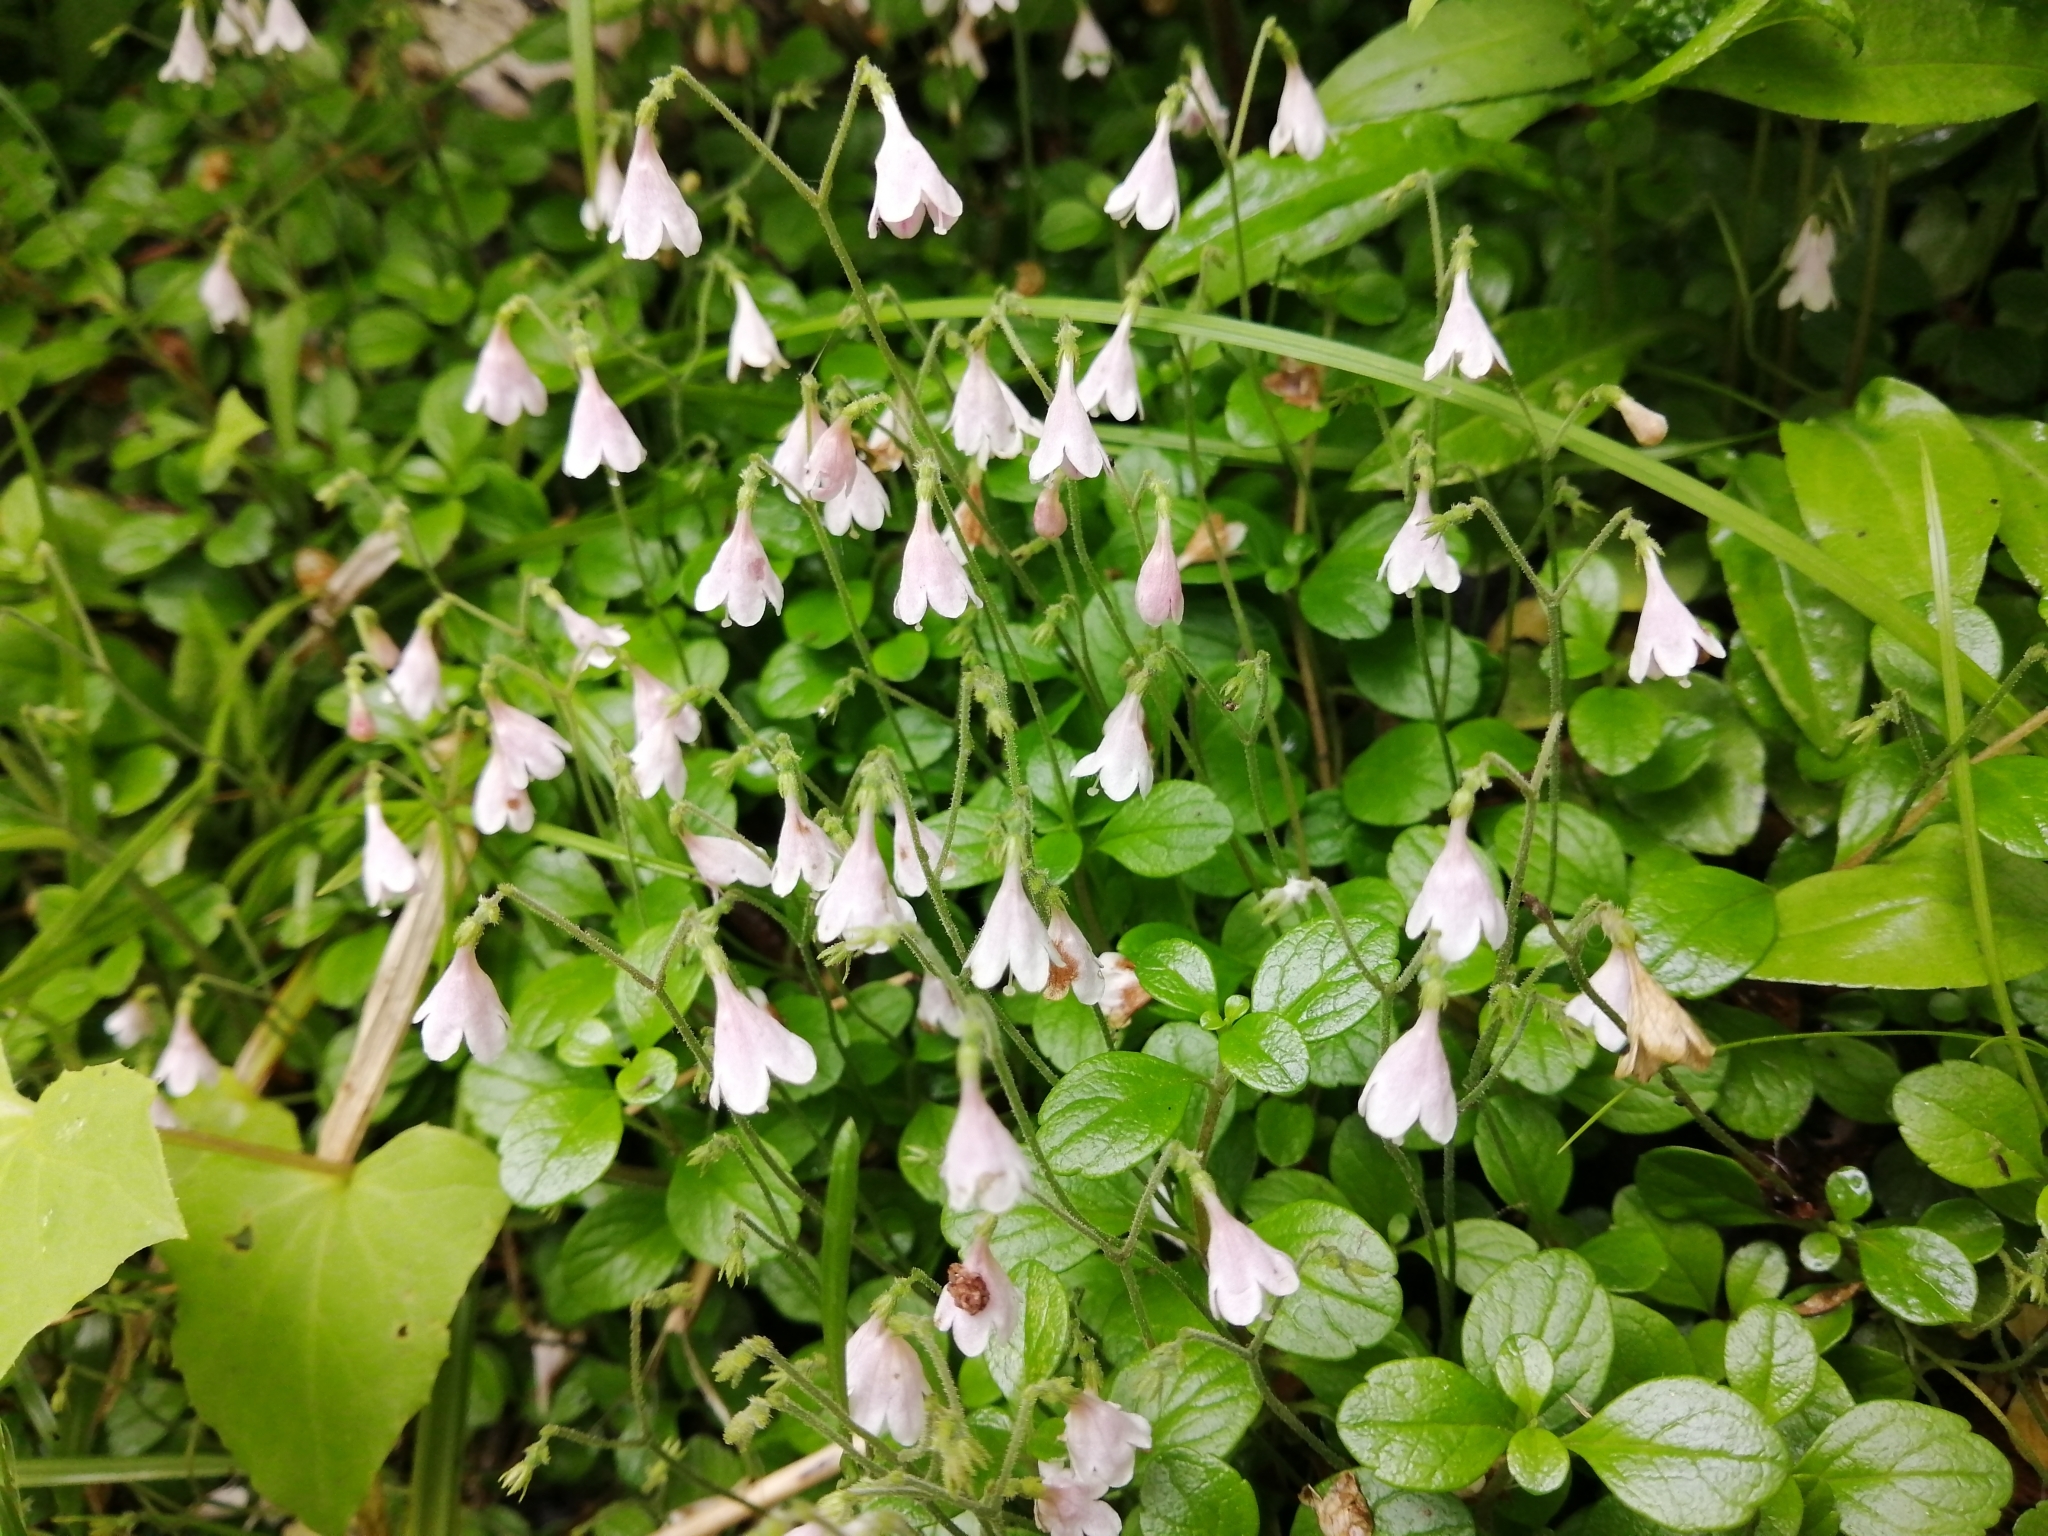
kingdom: Plantae
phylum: Tracheophyta
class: Magnoliopsida
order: Dipsacales
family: Caprifoliaceae
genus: Linnaea
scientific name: Linnaea borealis
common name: Twinflower
